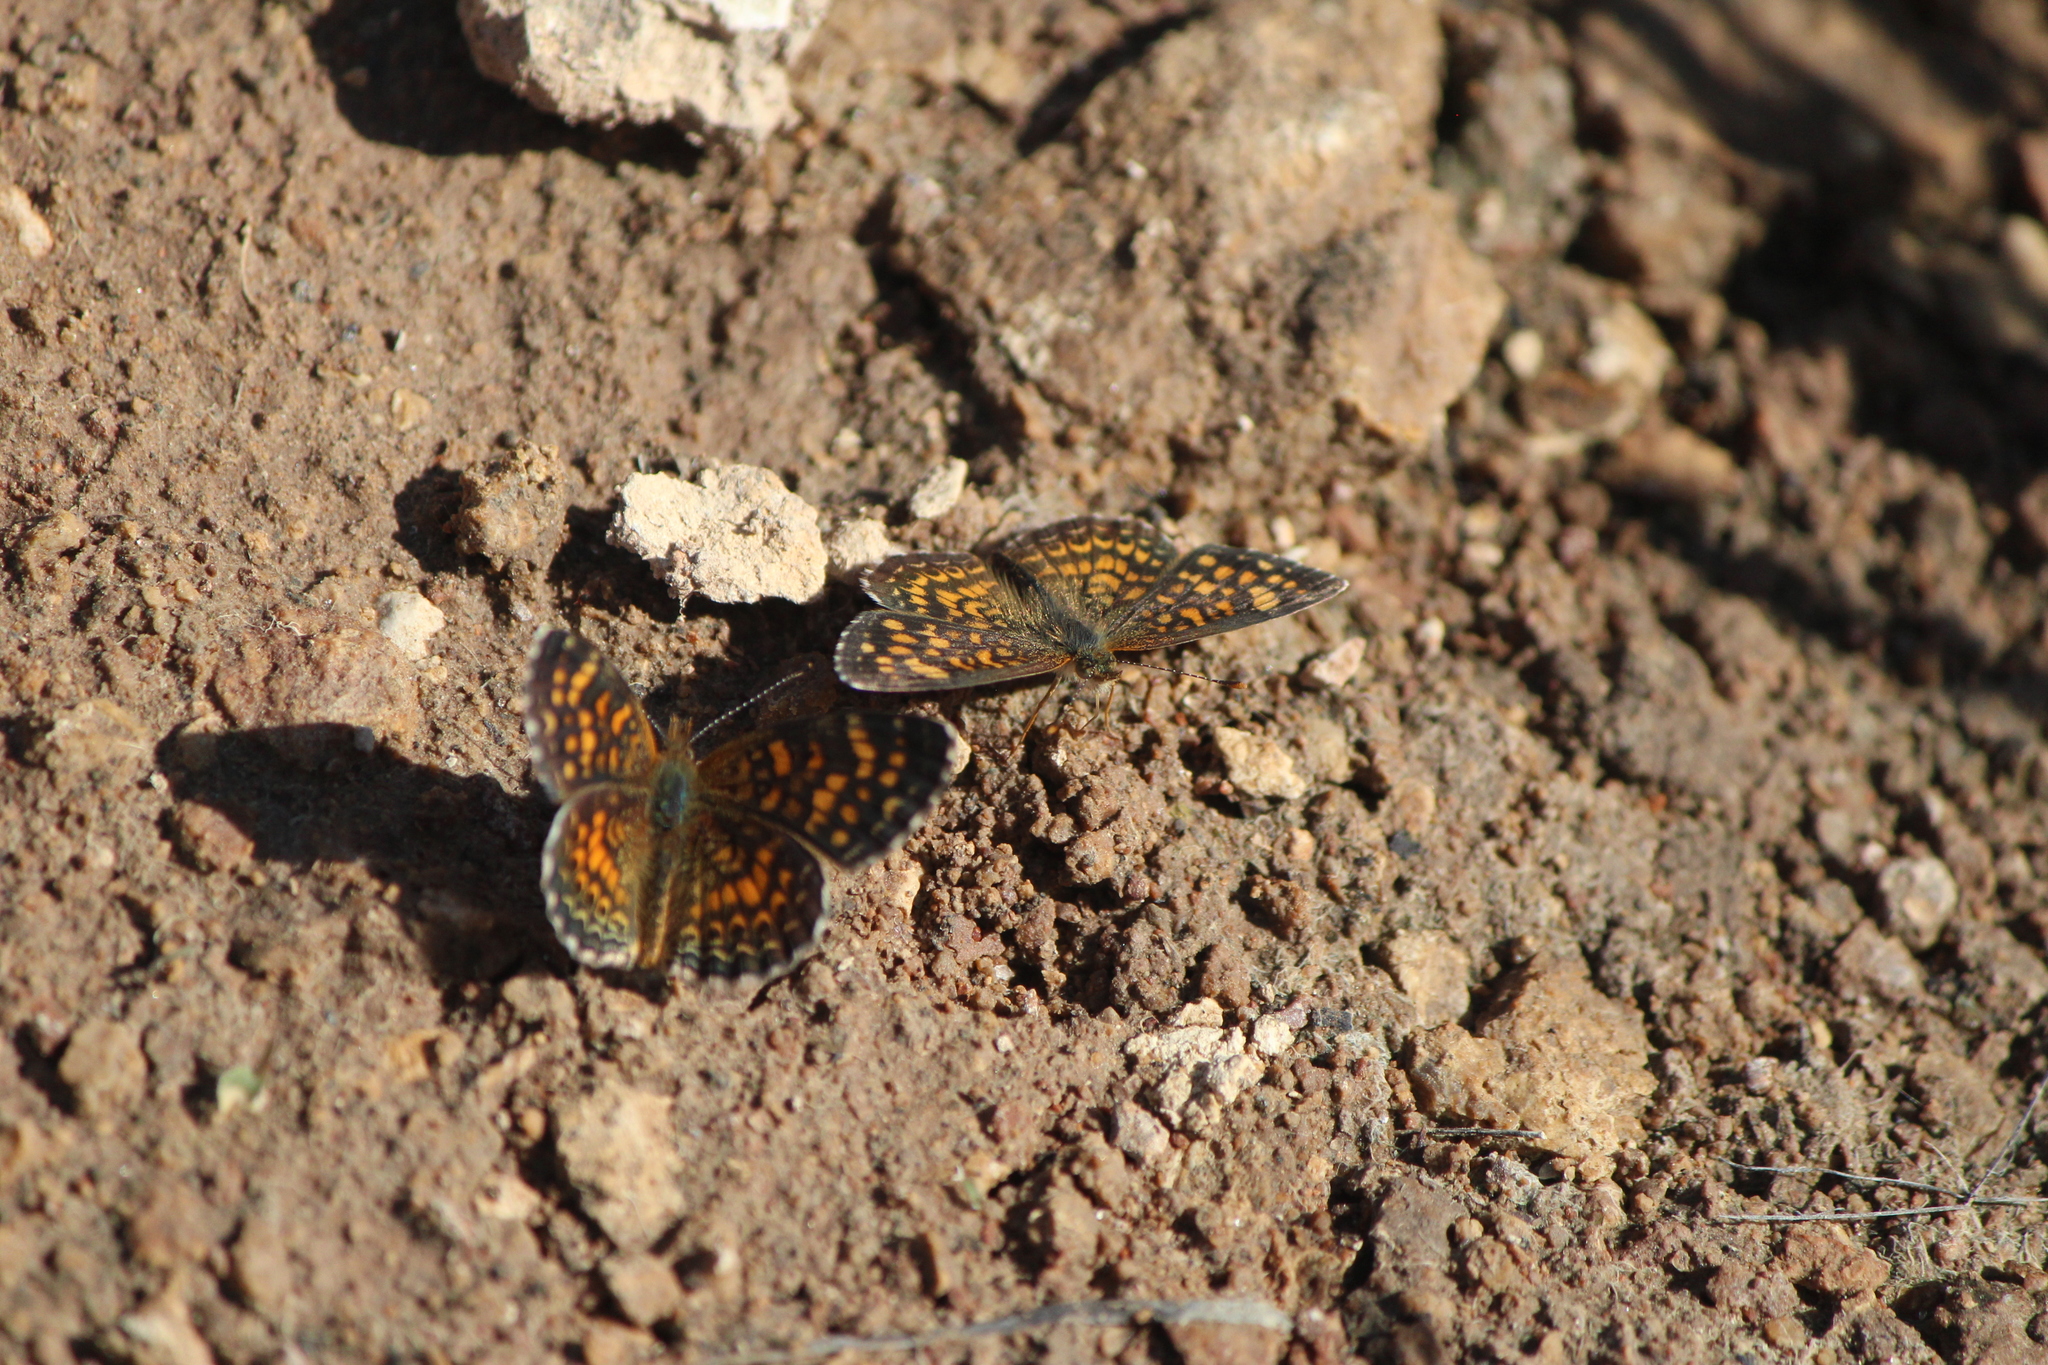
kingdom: Animalia
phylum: Arthropoda
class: Insecta
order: Lepidoptera
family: Nymphalidae
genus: Phyciodes
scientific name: Phyciodes vesta
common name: Vesta crescent
